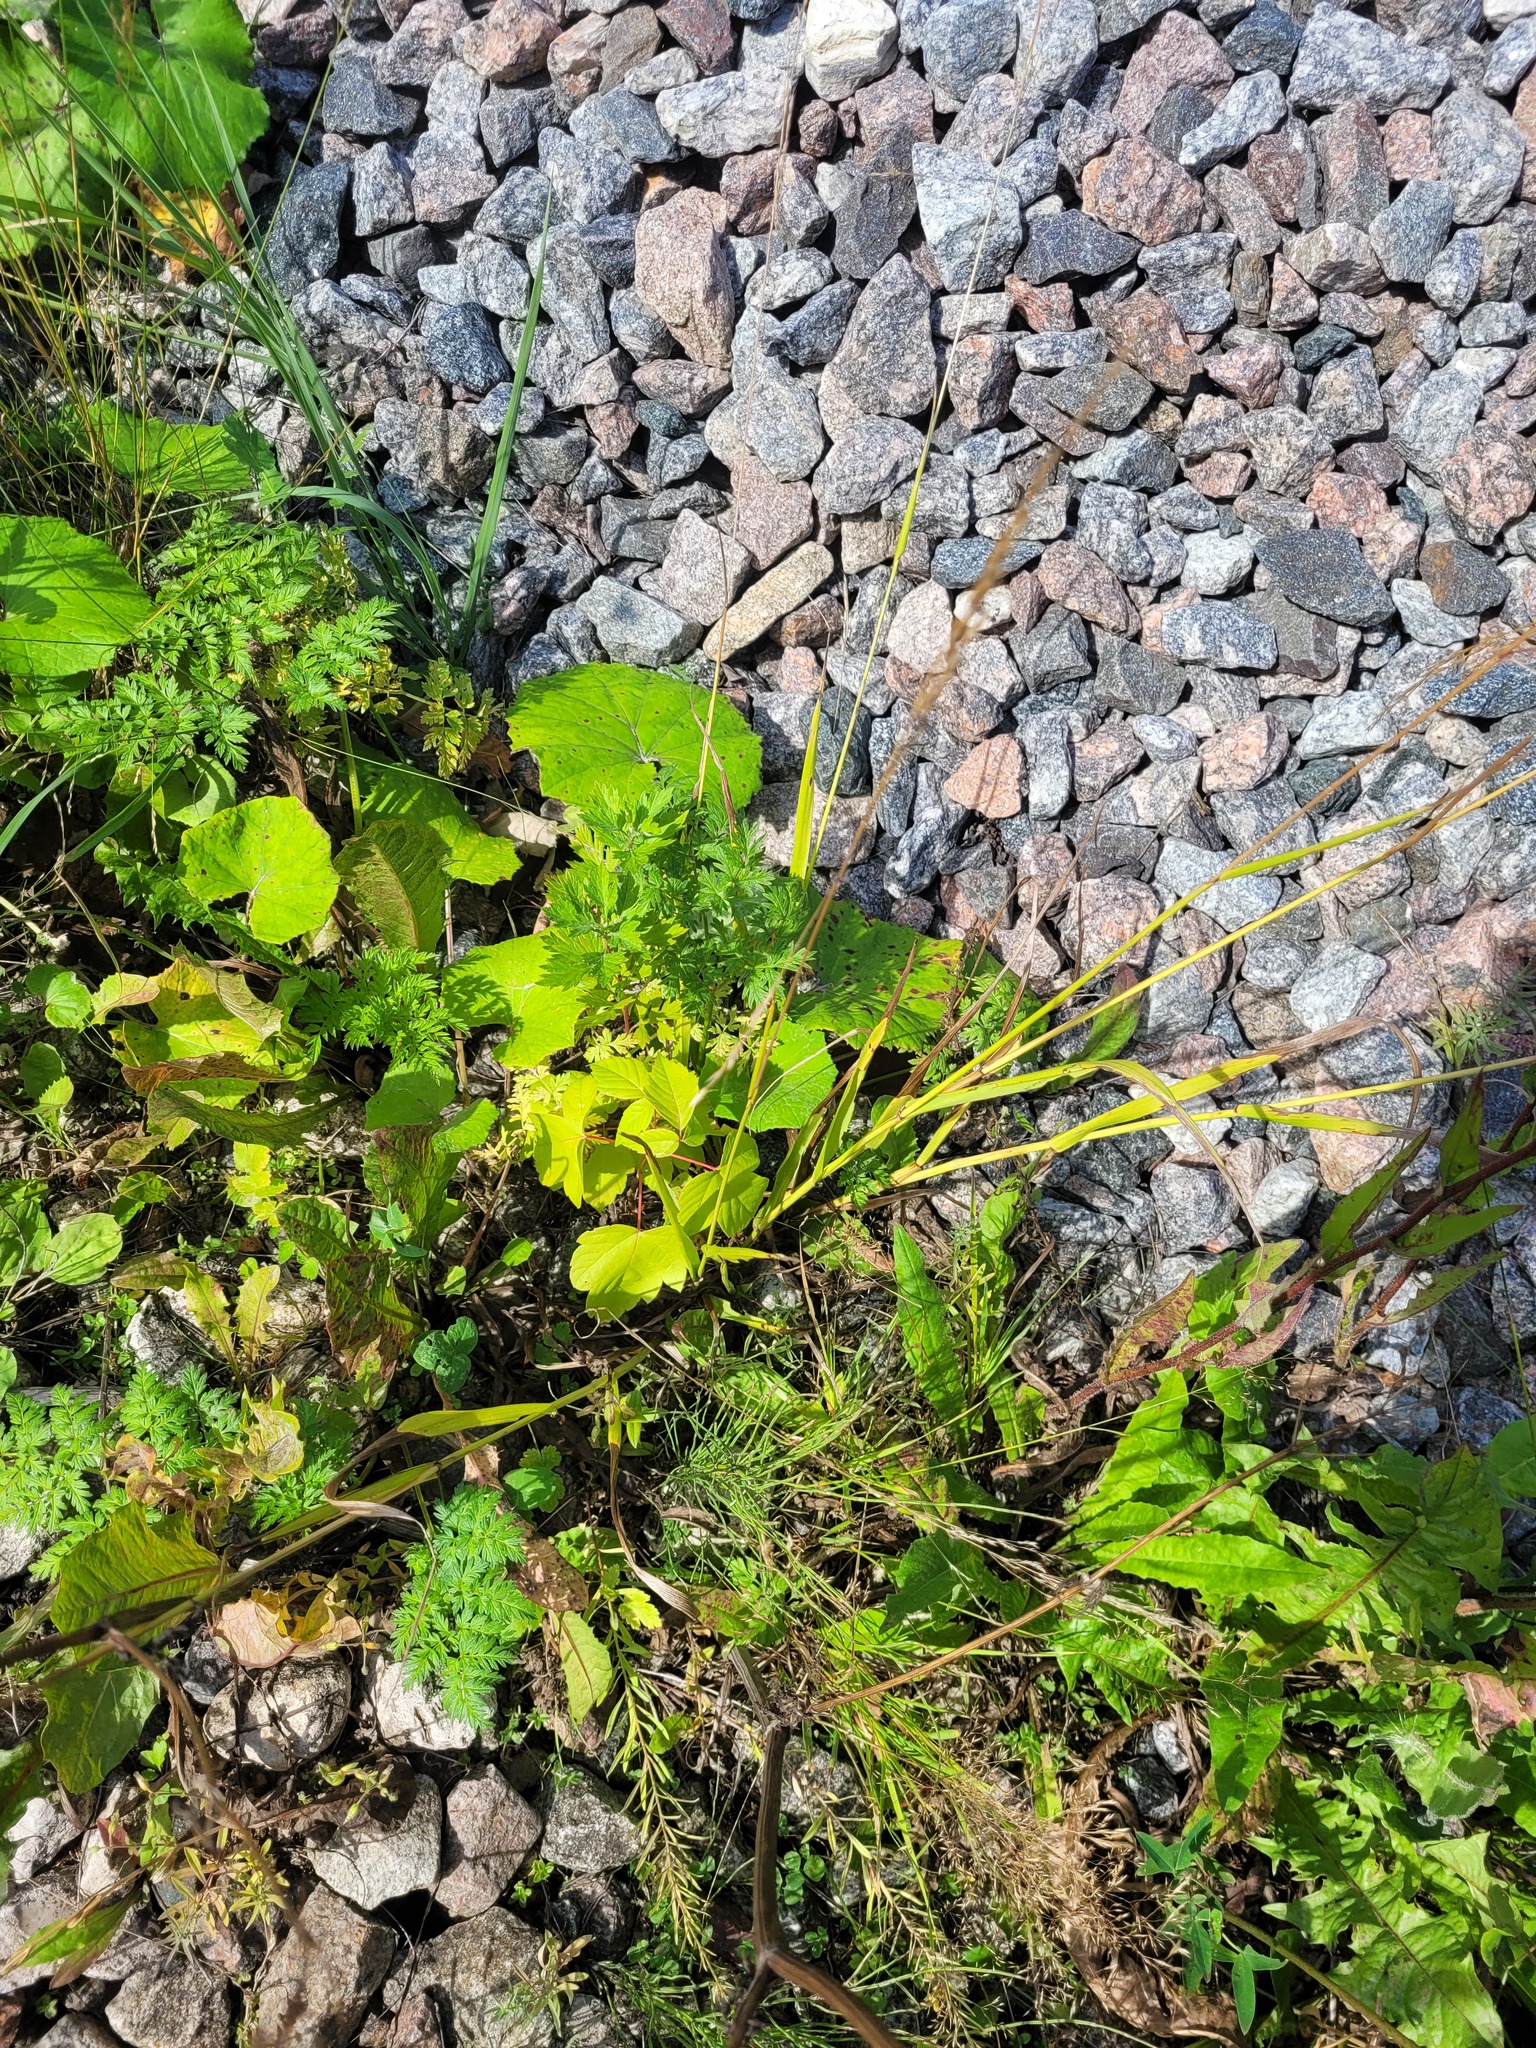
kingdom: Plantae
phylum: Tracheophyta
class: Magnoliopsida
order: Sapindales
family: Sapindaceae
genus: Acer
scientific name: Acer negundo
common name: Ashleaf maple
